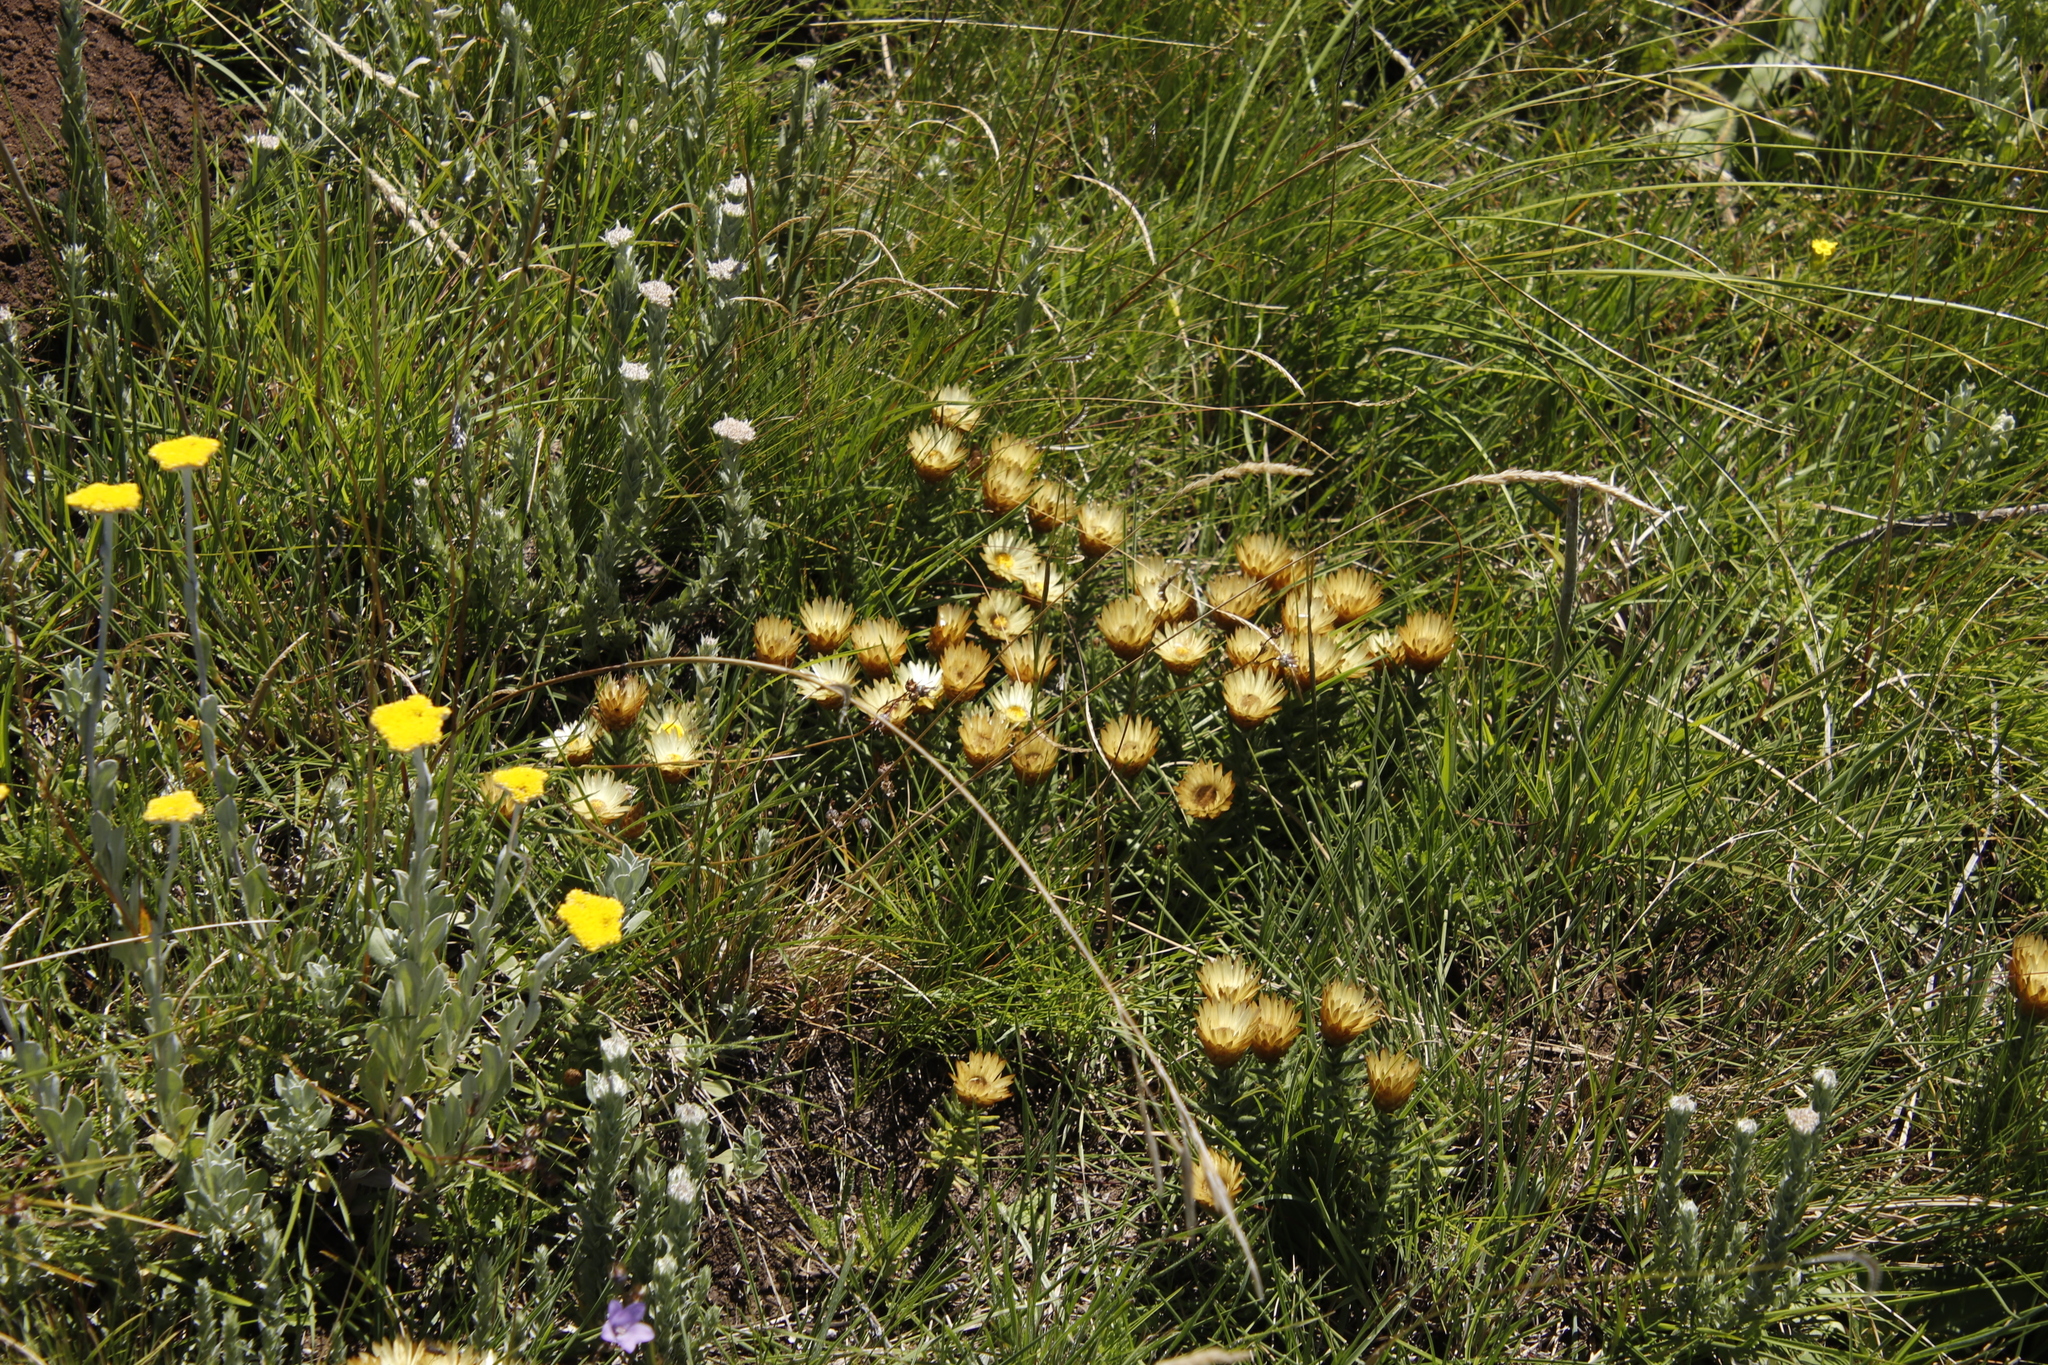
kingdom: Plantae
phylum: Tracheophyta
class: Magnoliopsida
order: Asterales
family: Asteraceae
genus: Helichrysum
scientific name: Helichrysum herbaceum
